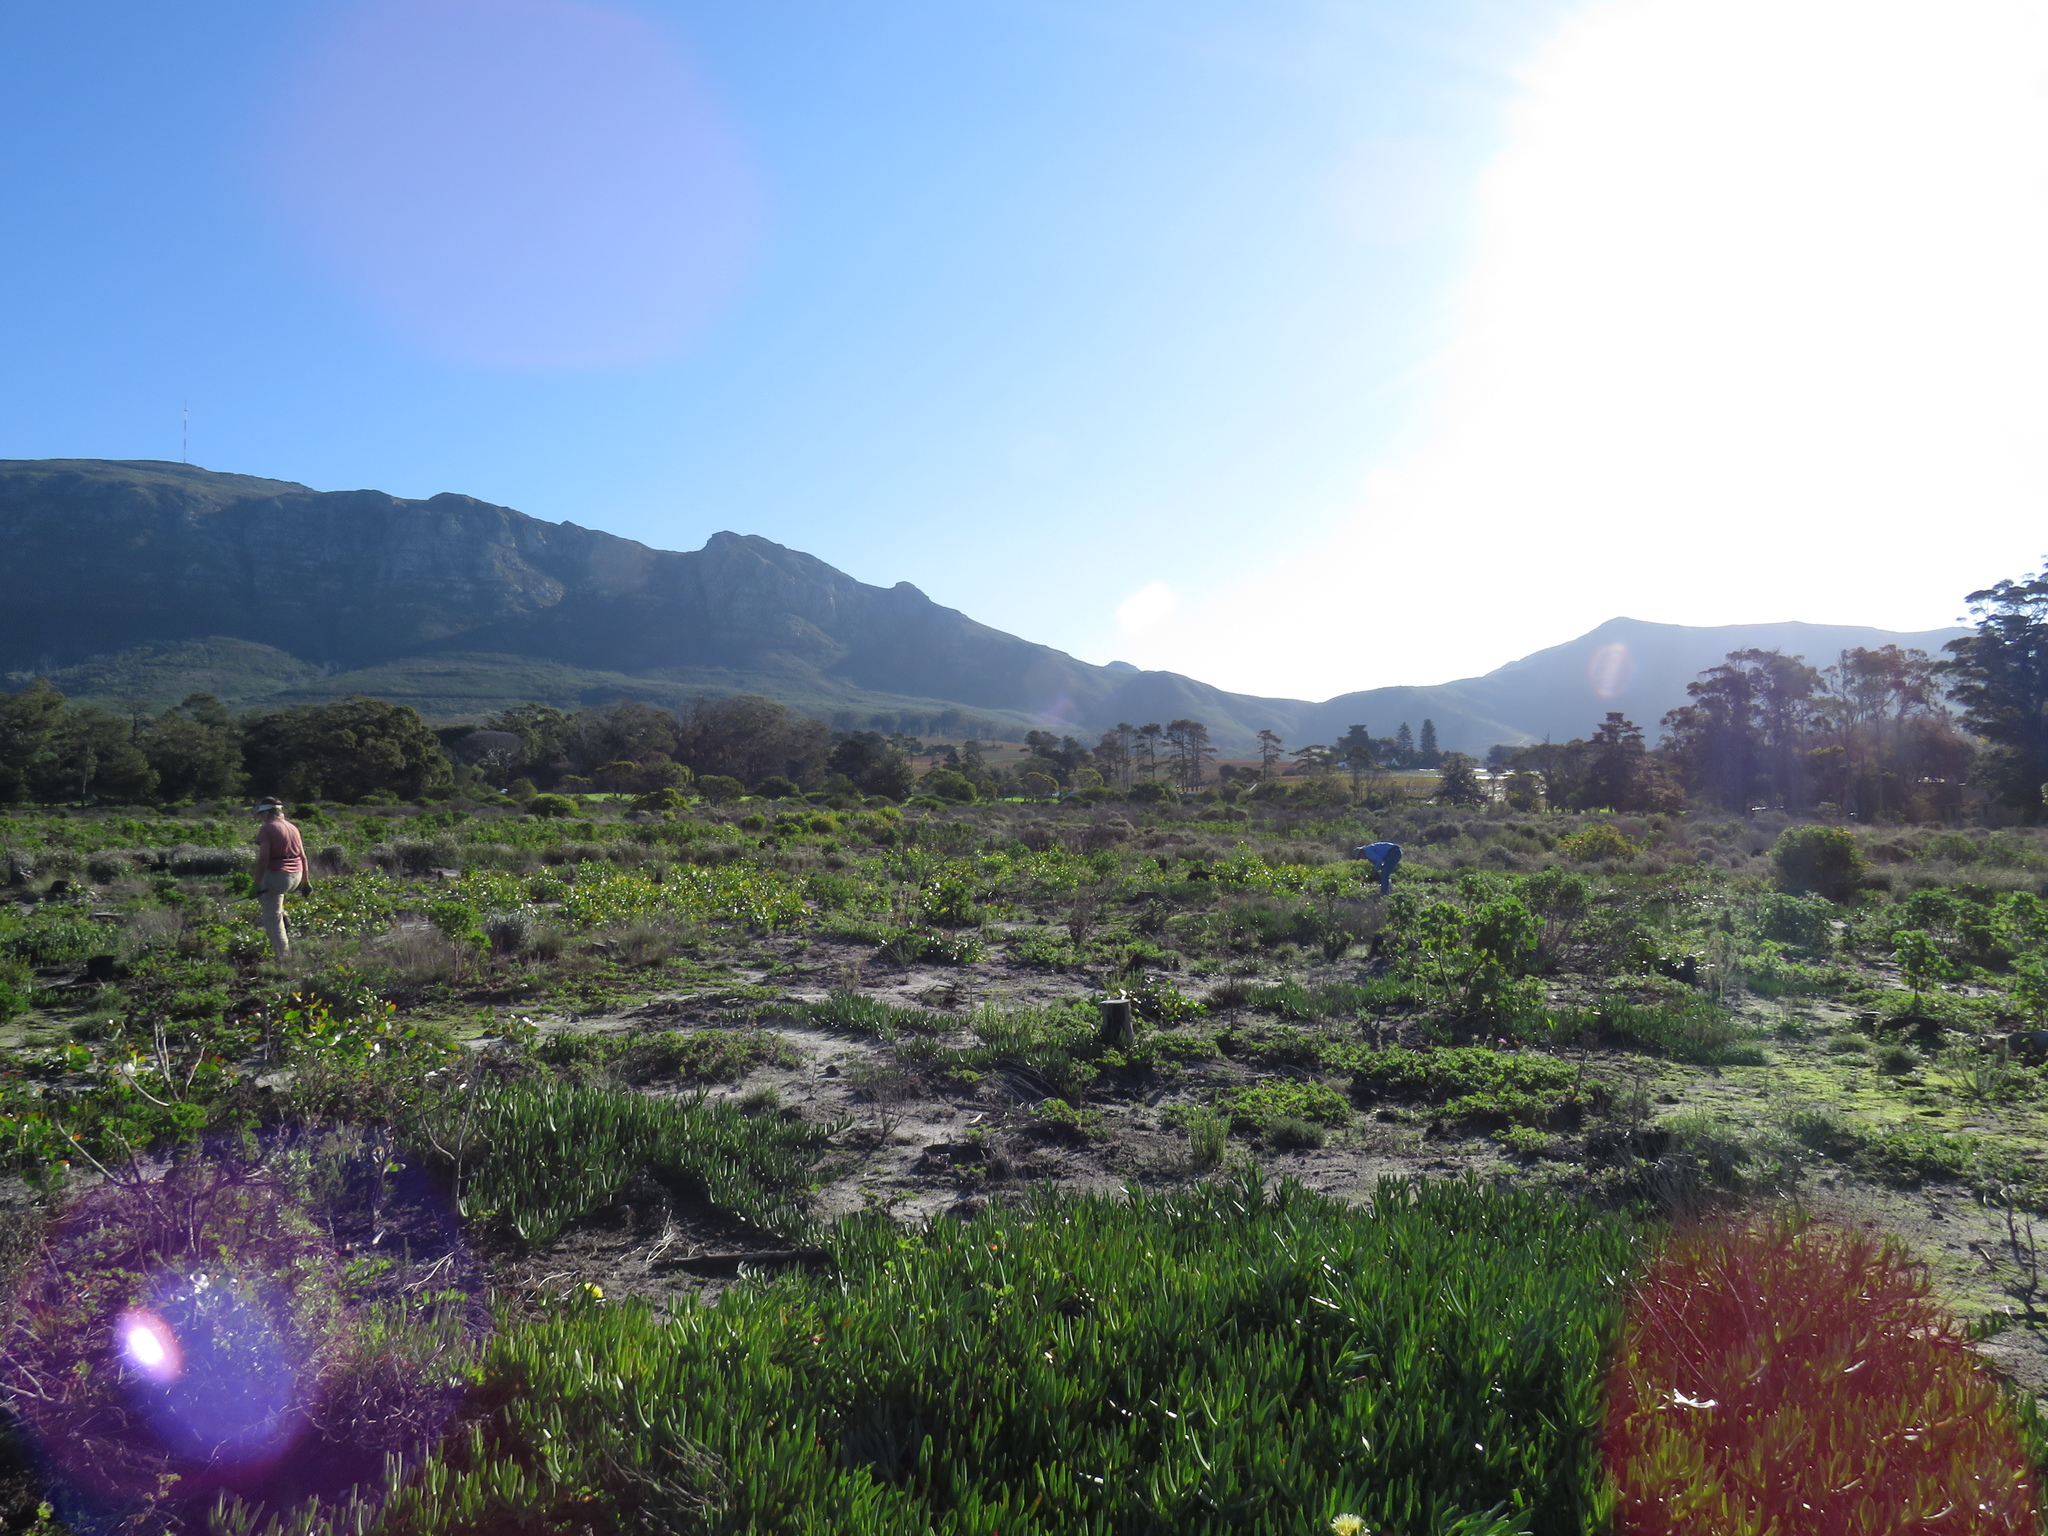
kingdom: Plantae
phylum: Tracheophyta
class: Magnoliopsida
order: Fabales
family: Fabaceae
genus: Acacia
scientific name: Acacia pycnantha
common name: Golden wattle
